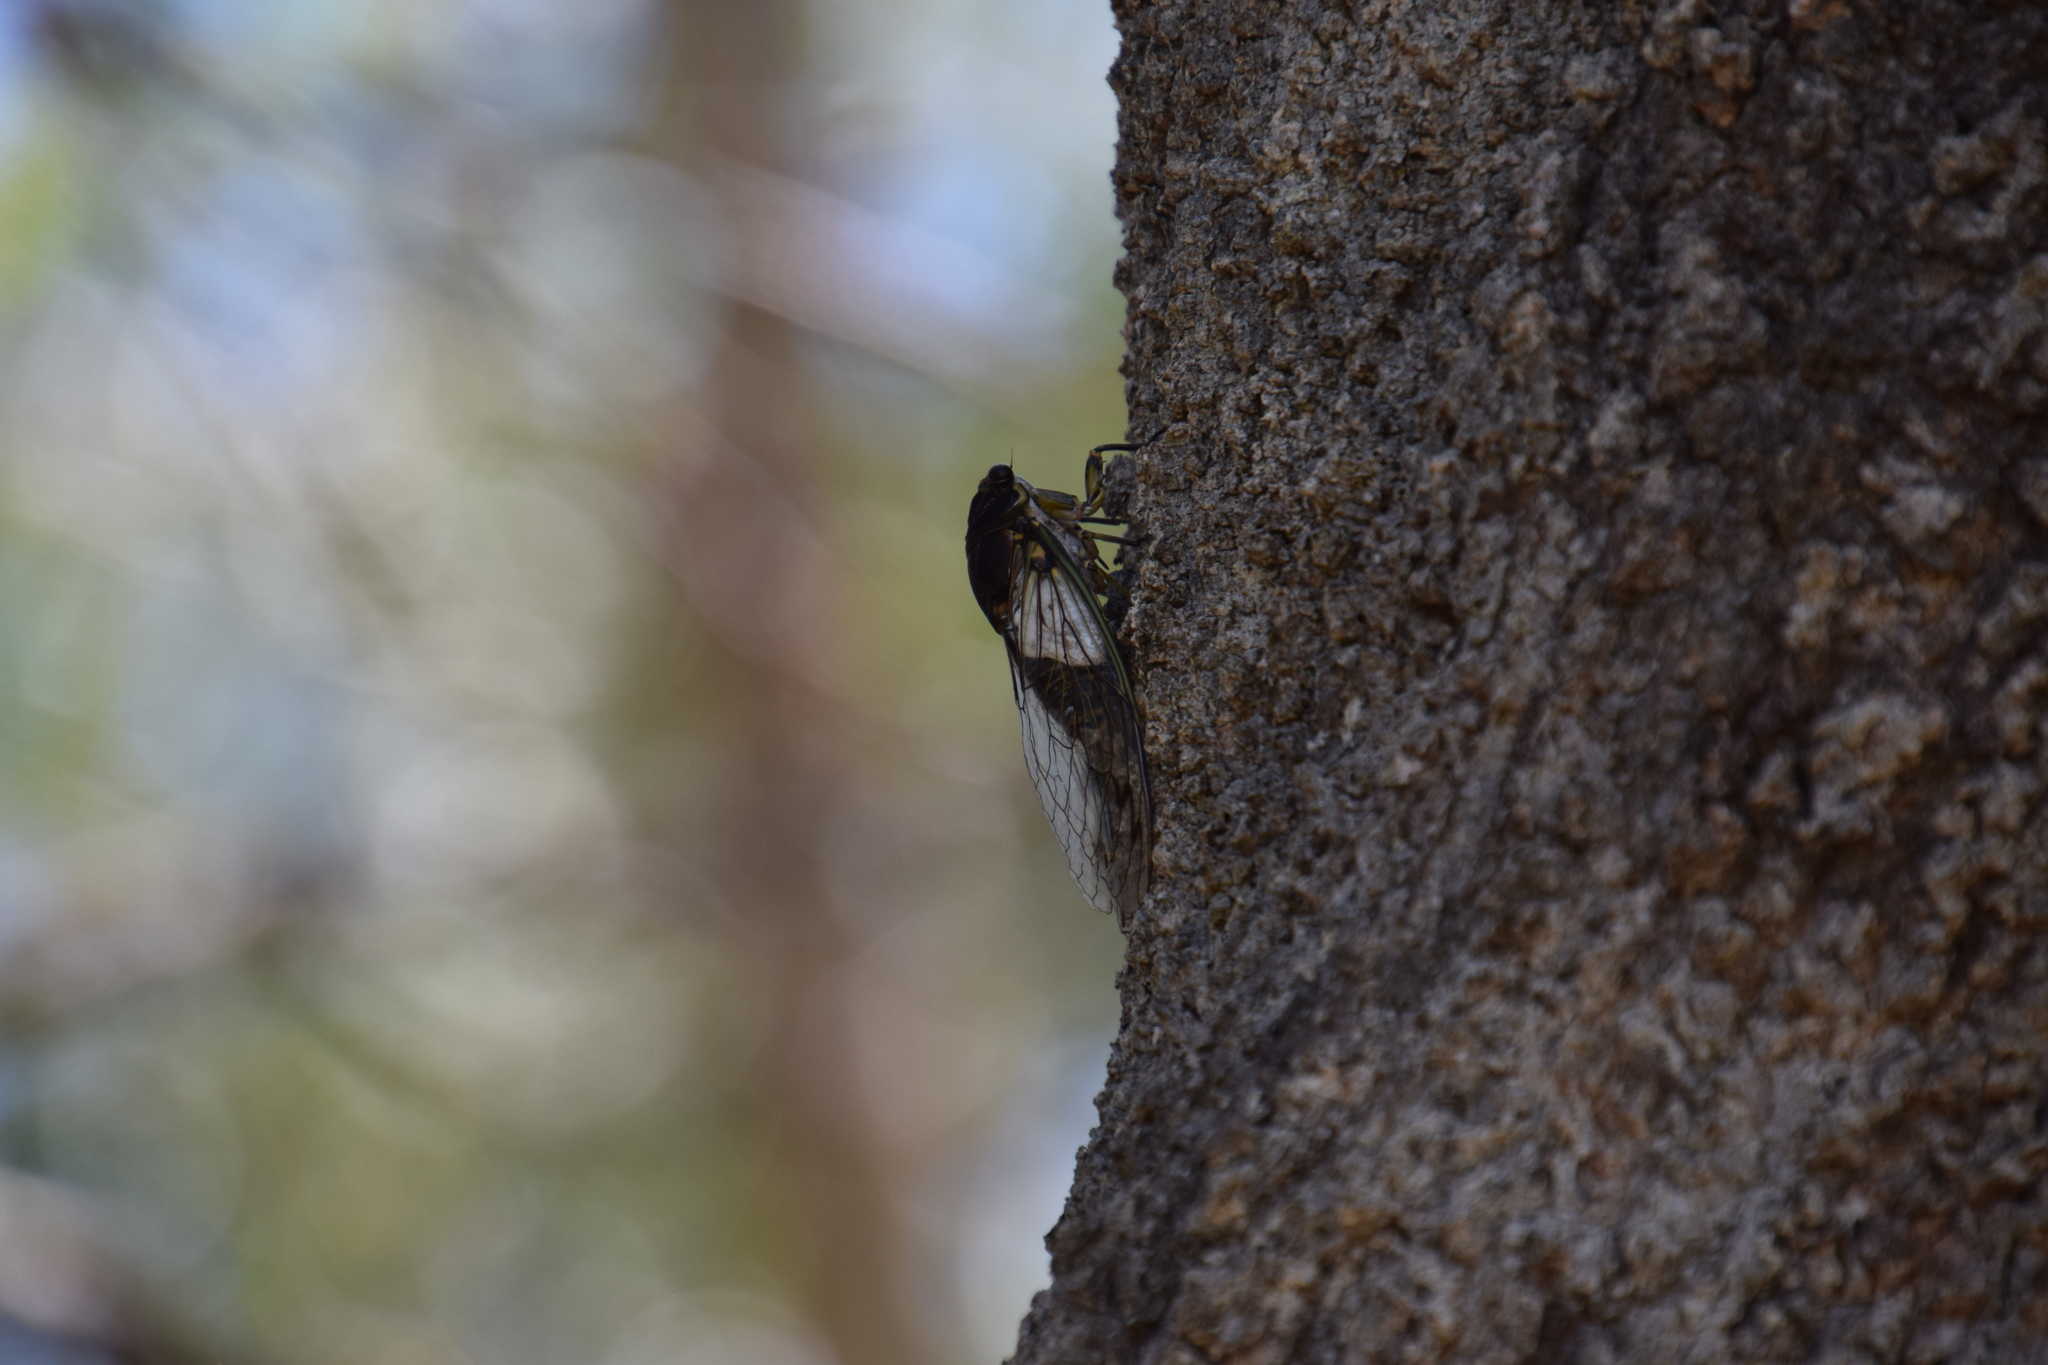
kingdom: Animalia
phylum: Arthropoda
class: Insecta
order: Hemiptera
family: Cicadidae
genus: Arunta
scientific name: Arunta perulata
